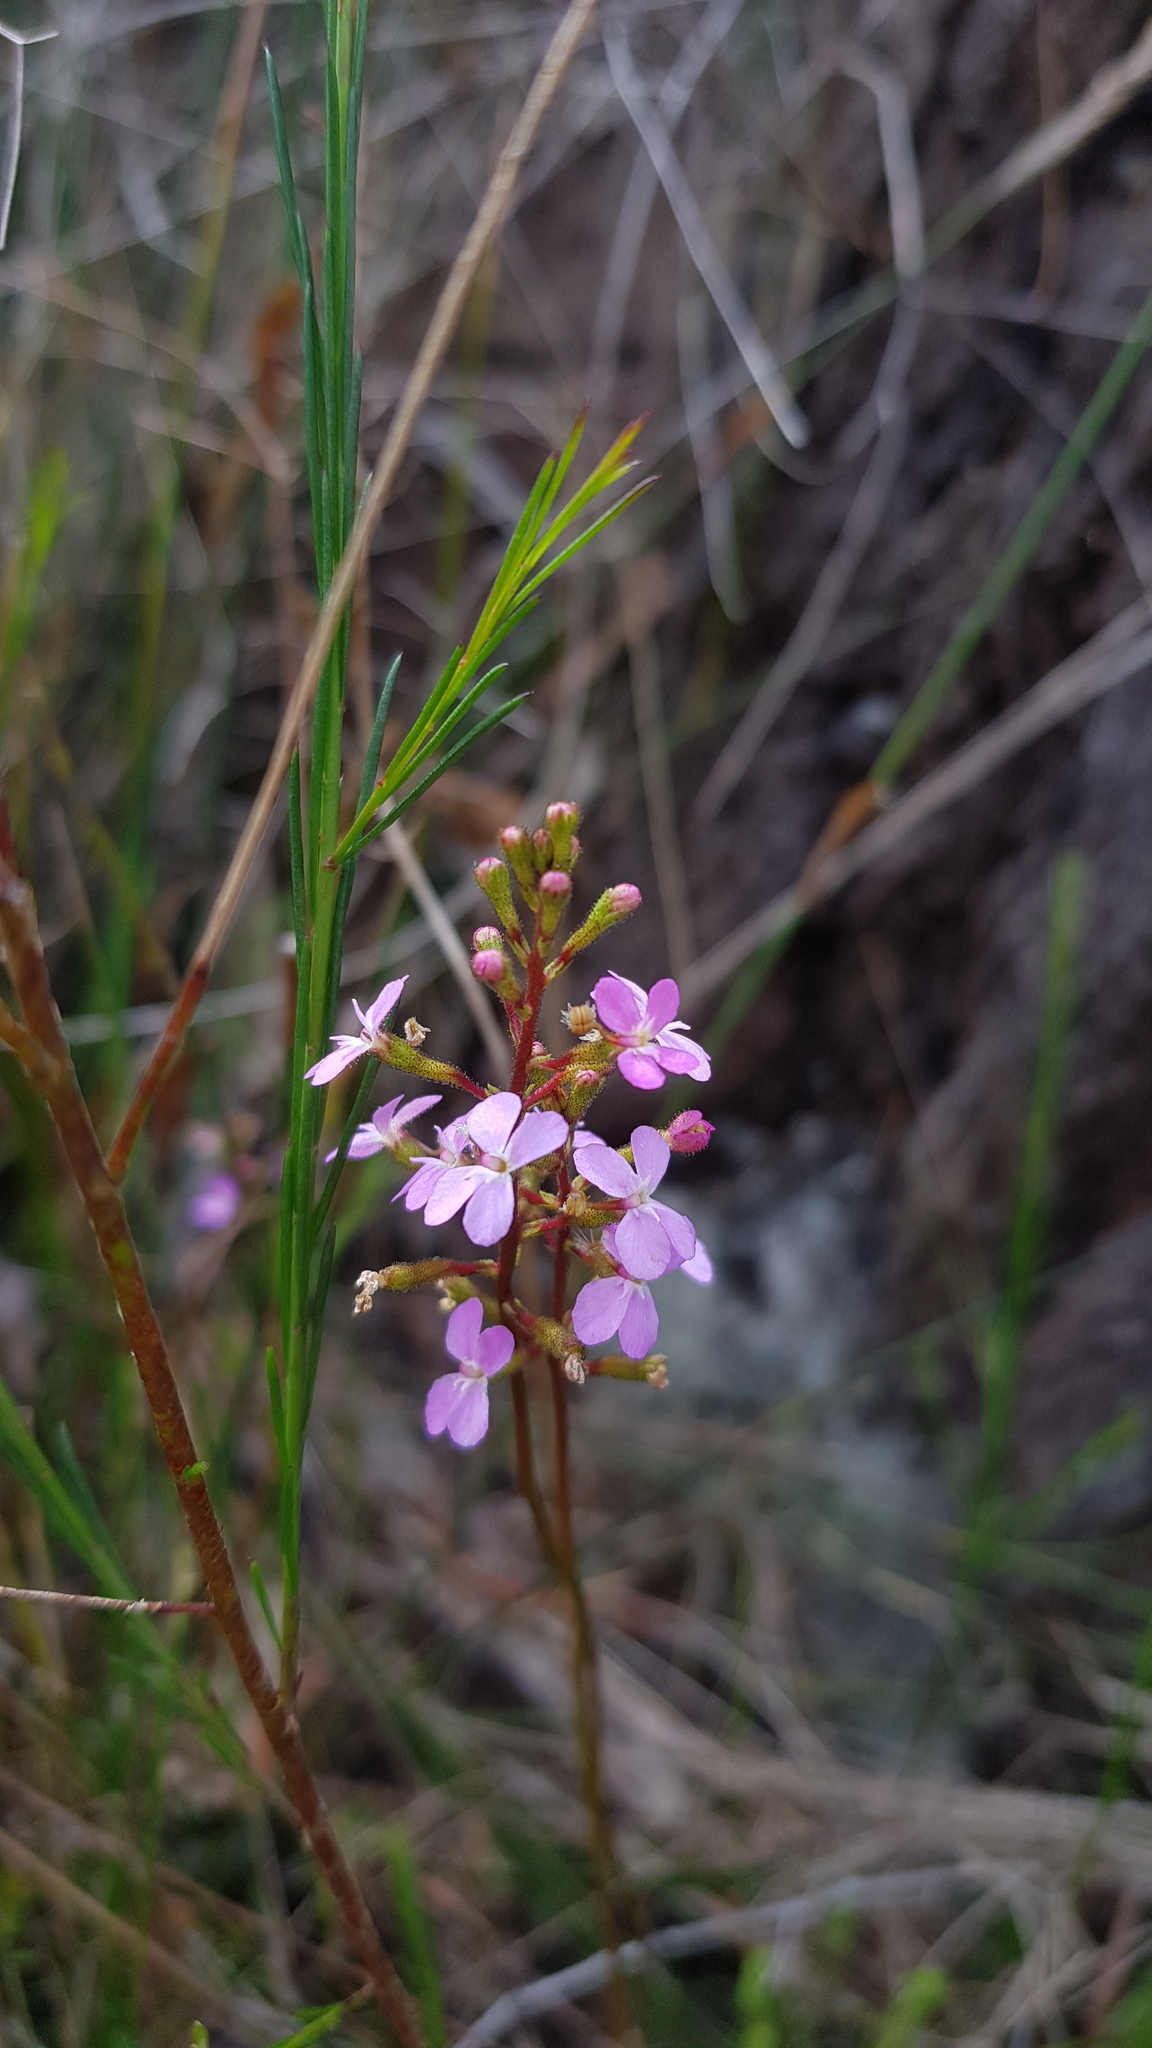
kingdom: Plantae
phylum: Tracheophyta
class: Magnoliopsida
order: Asterales
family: Stylidiaceae
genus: Stylidium
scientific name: Stylidium lineare
